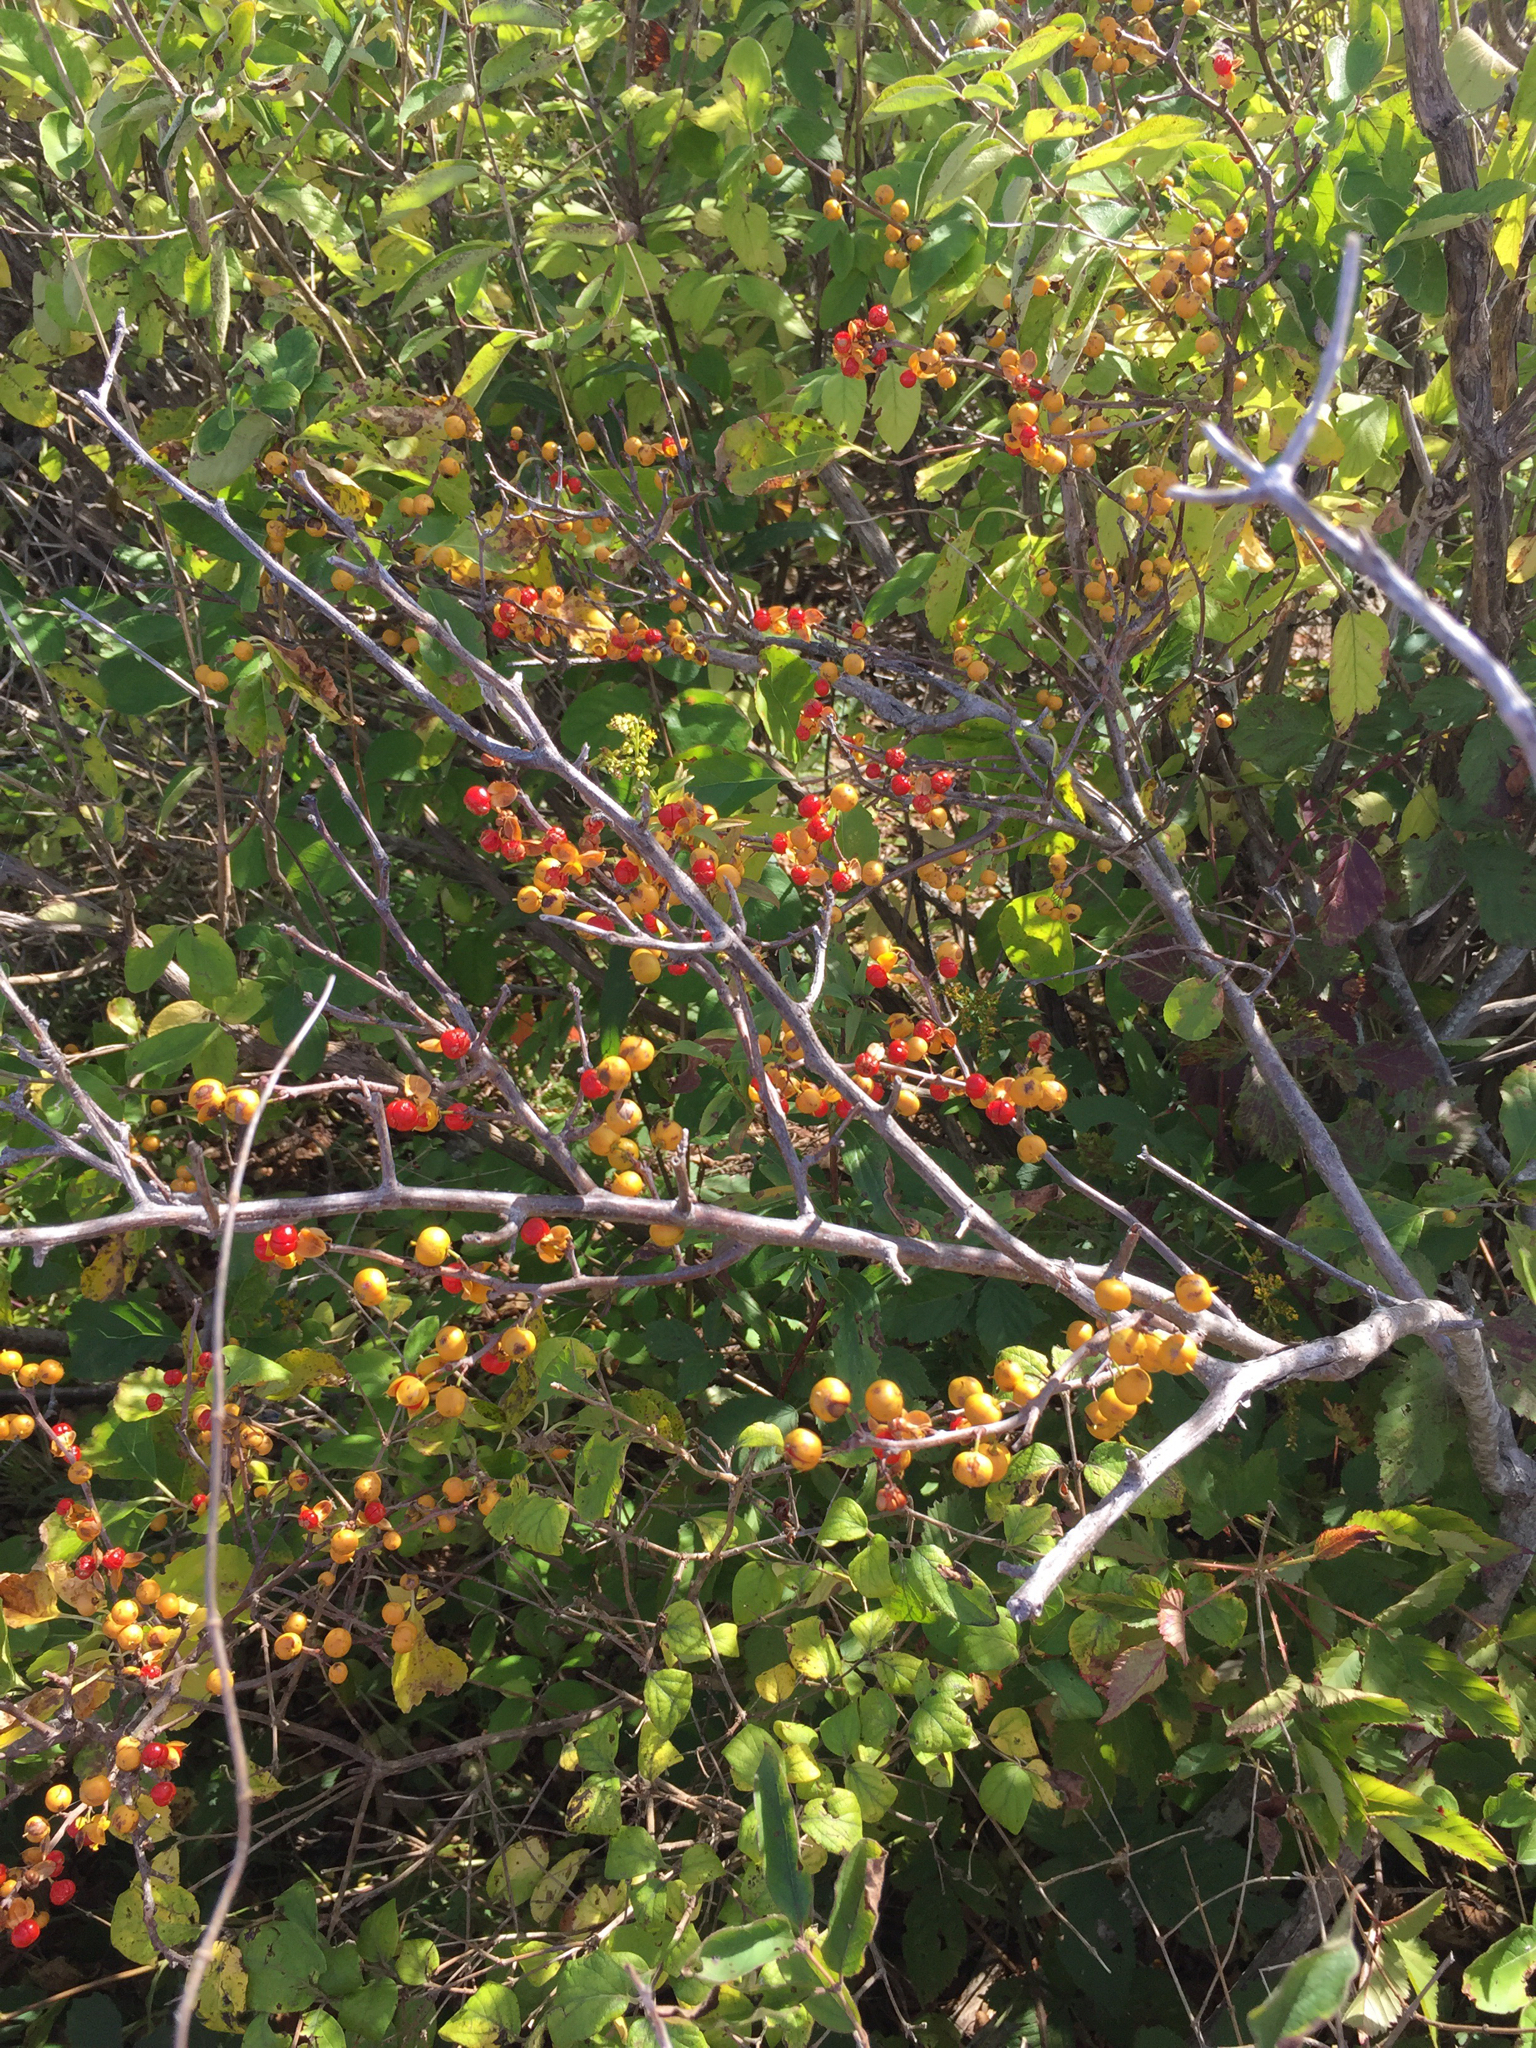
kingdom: Plantae
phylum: Tracheophyta
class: Magnoliopsida
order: Celastrales
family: Celastraceae
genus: Celastrus
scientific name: Celastrus orbiculatus
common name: Oriental bittersweet
